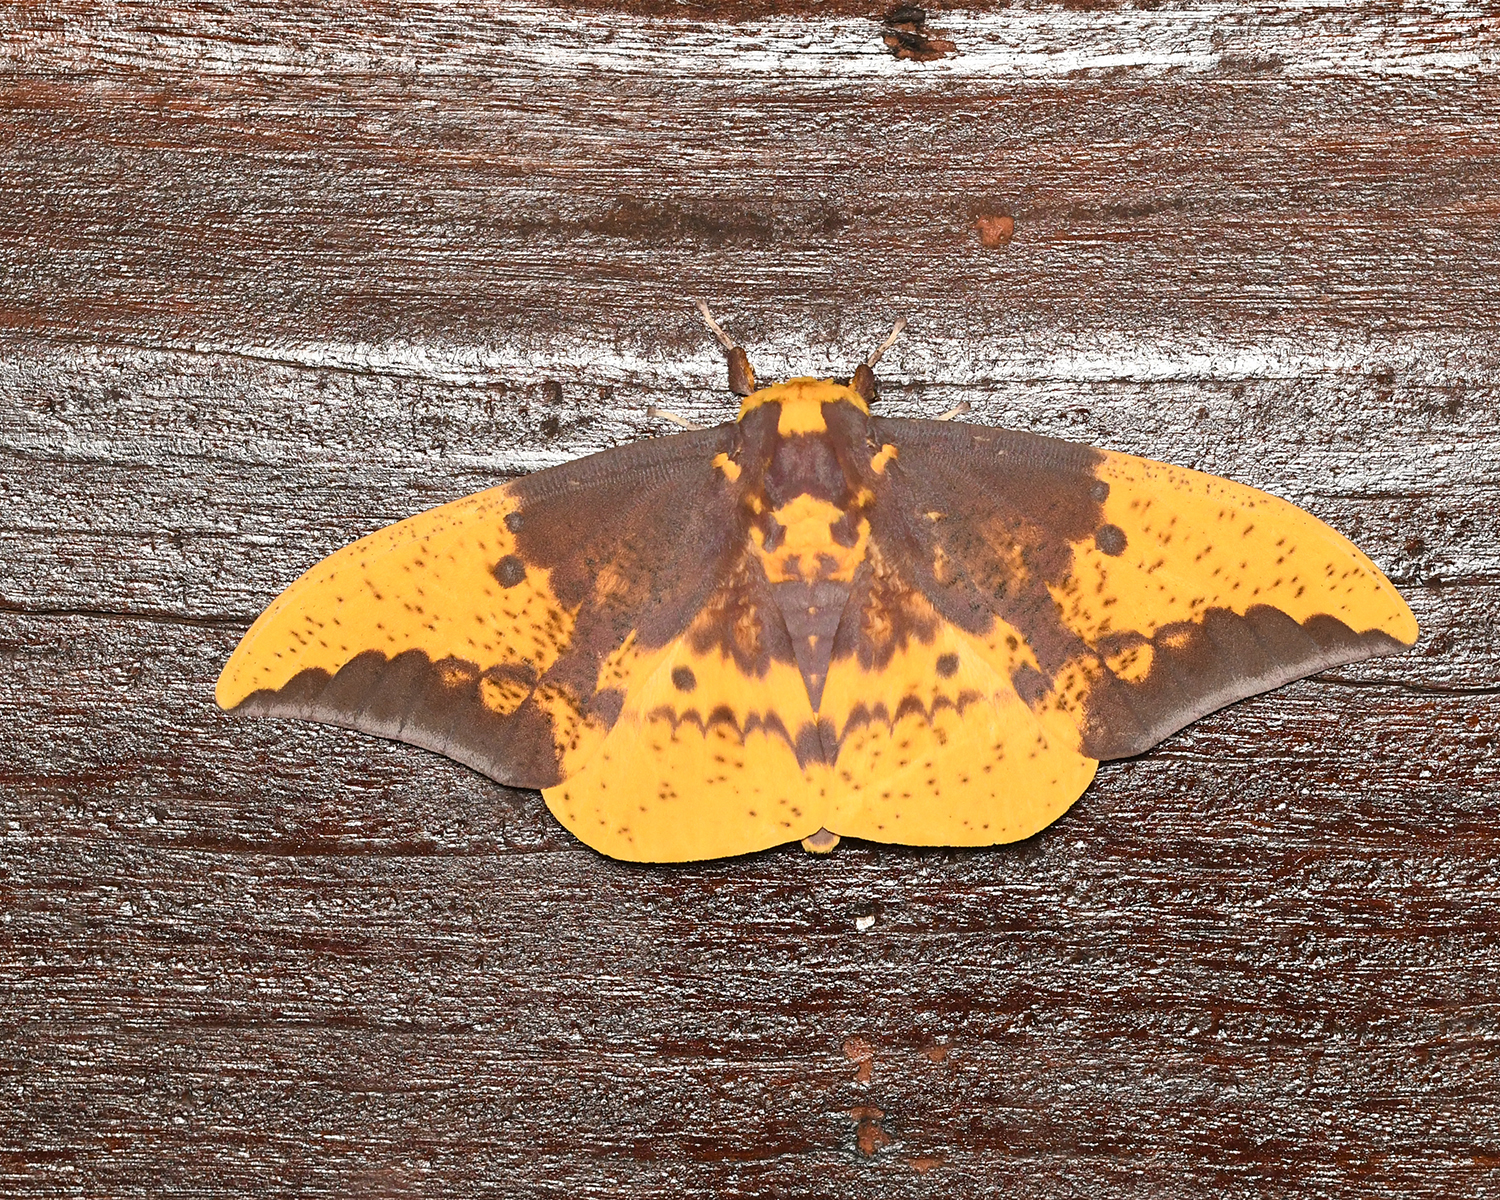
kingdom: Animalia
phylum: Arthropoda
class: Insecta
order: Lepidoptera
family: Saturniidae
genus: Eacles
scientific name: Eacles imperialis
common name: Imperial moth
